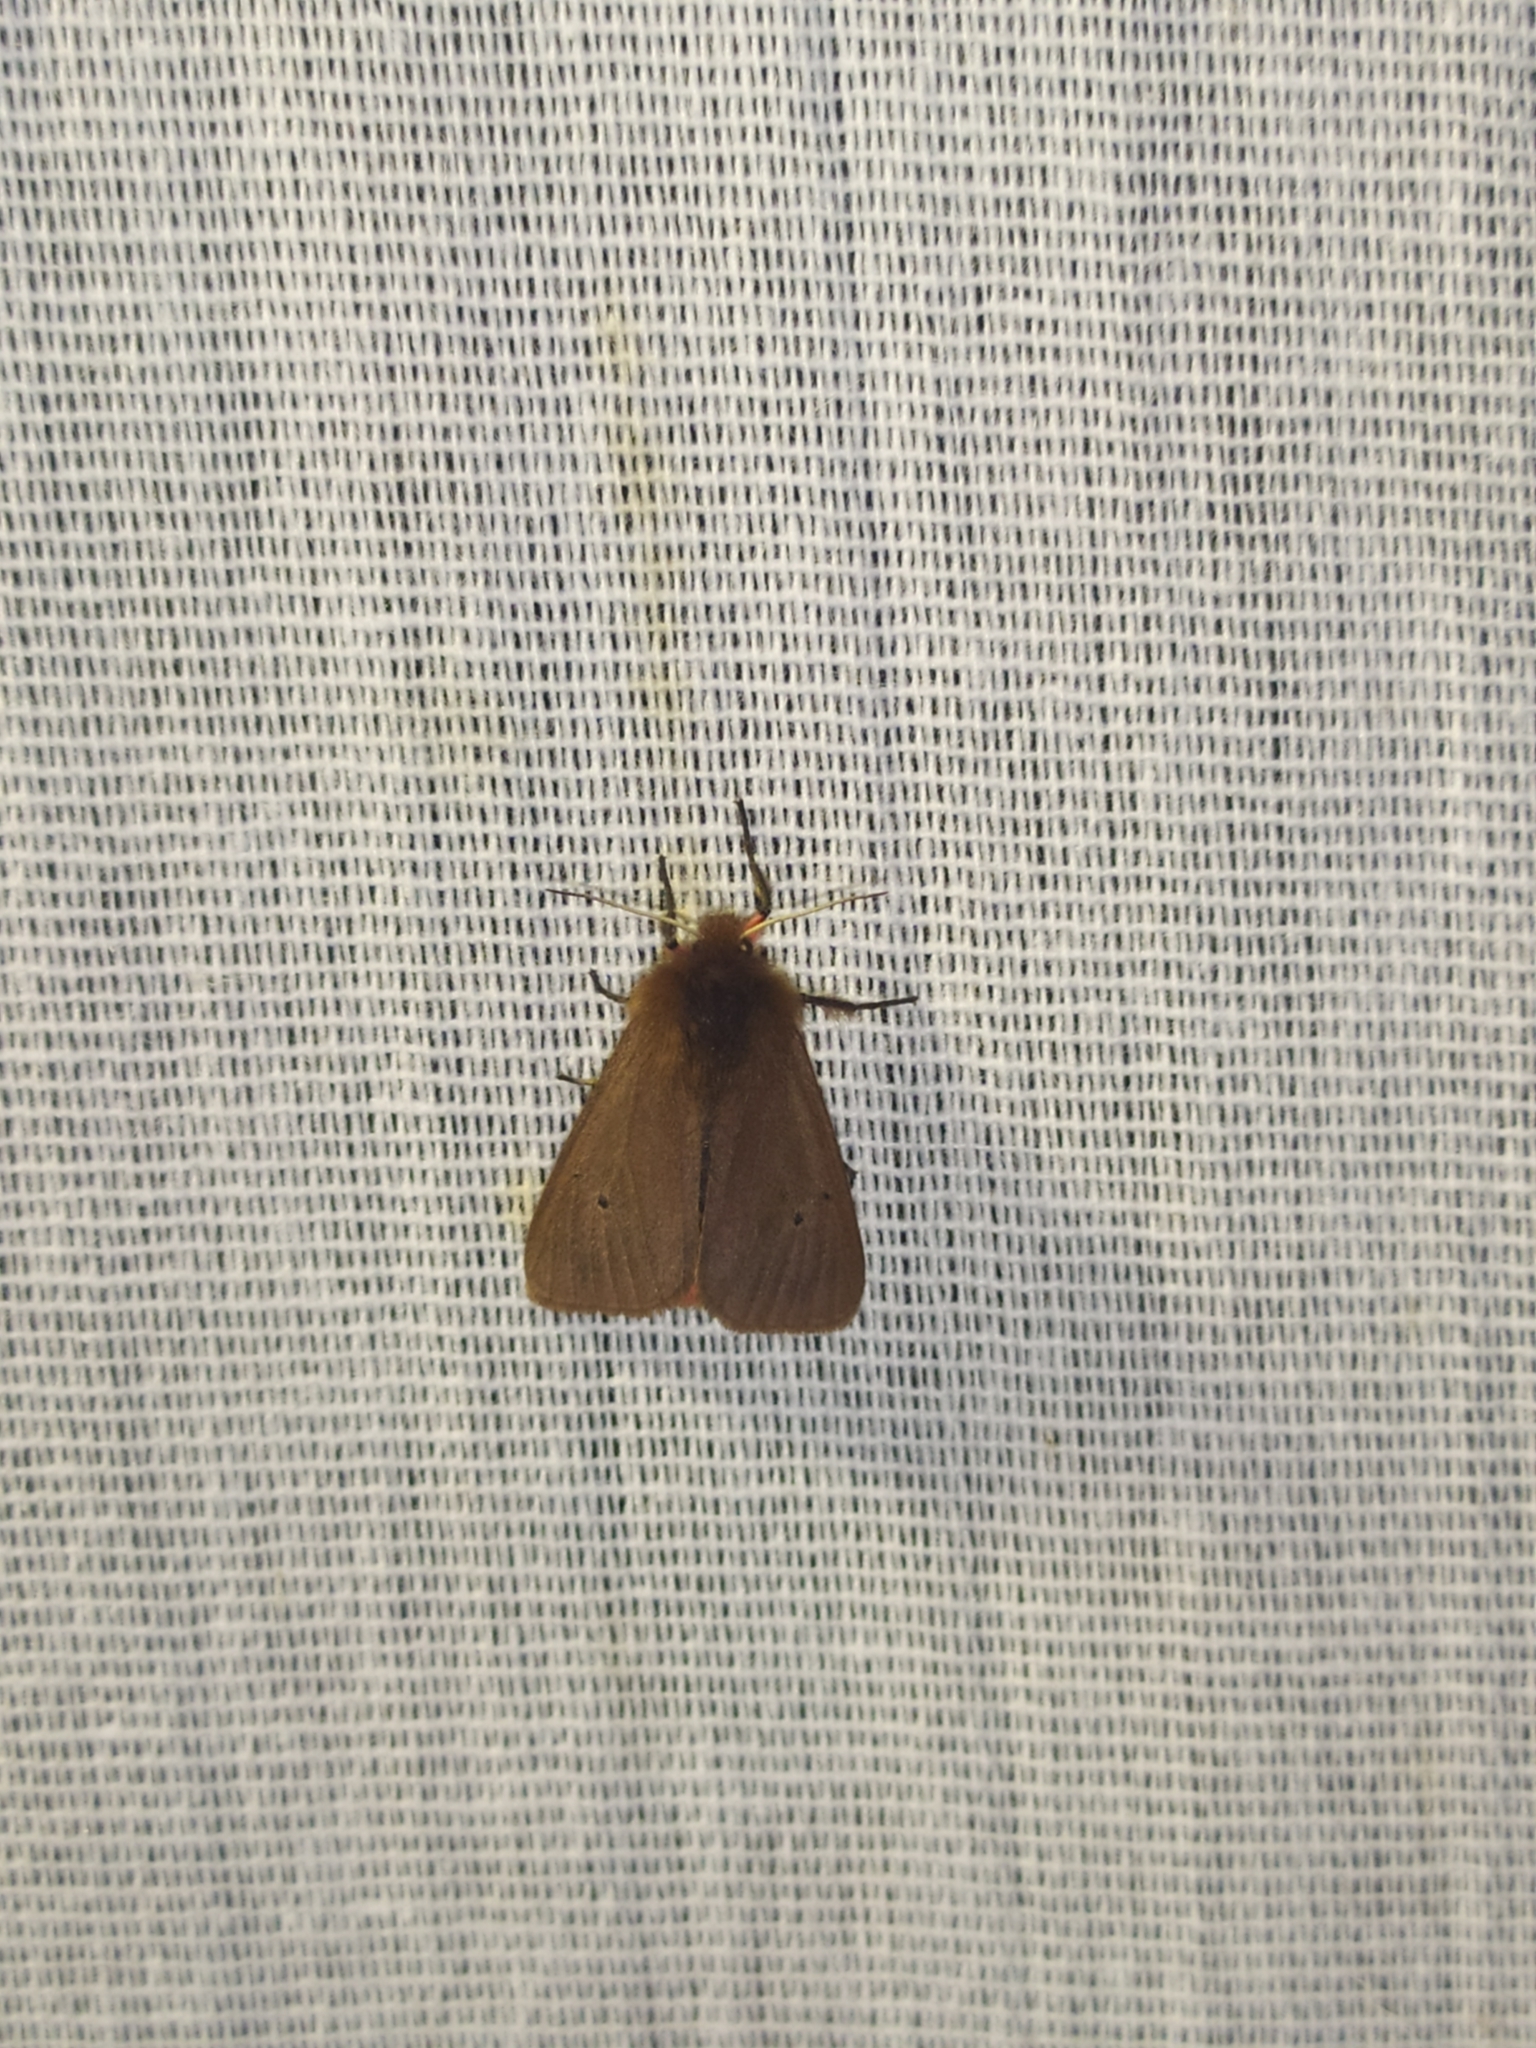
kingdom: Animalia
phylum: Arthropoda
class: Insecta
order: Lepidoptera
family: Erebidae
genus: Phragmatobia
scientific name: Phragmatobia fuliginosa
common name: Ruby tiger
